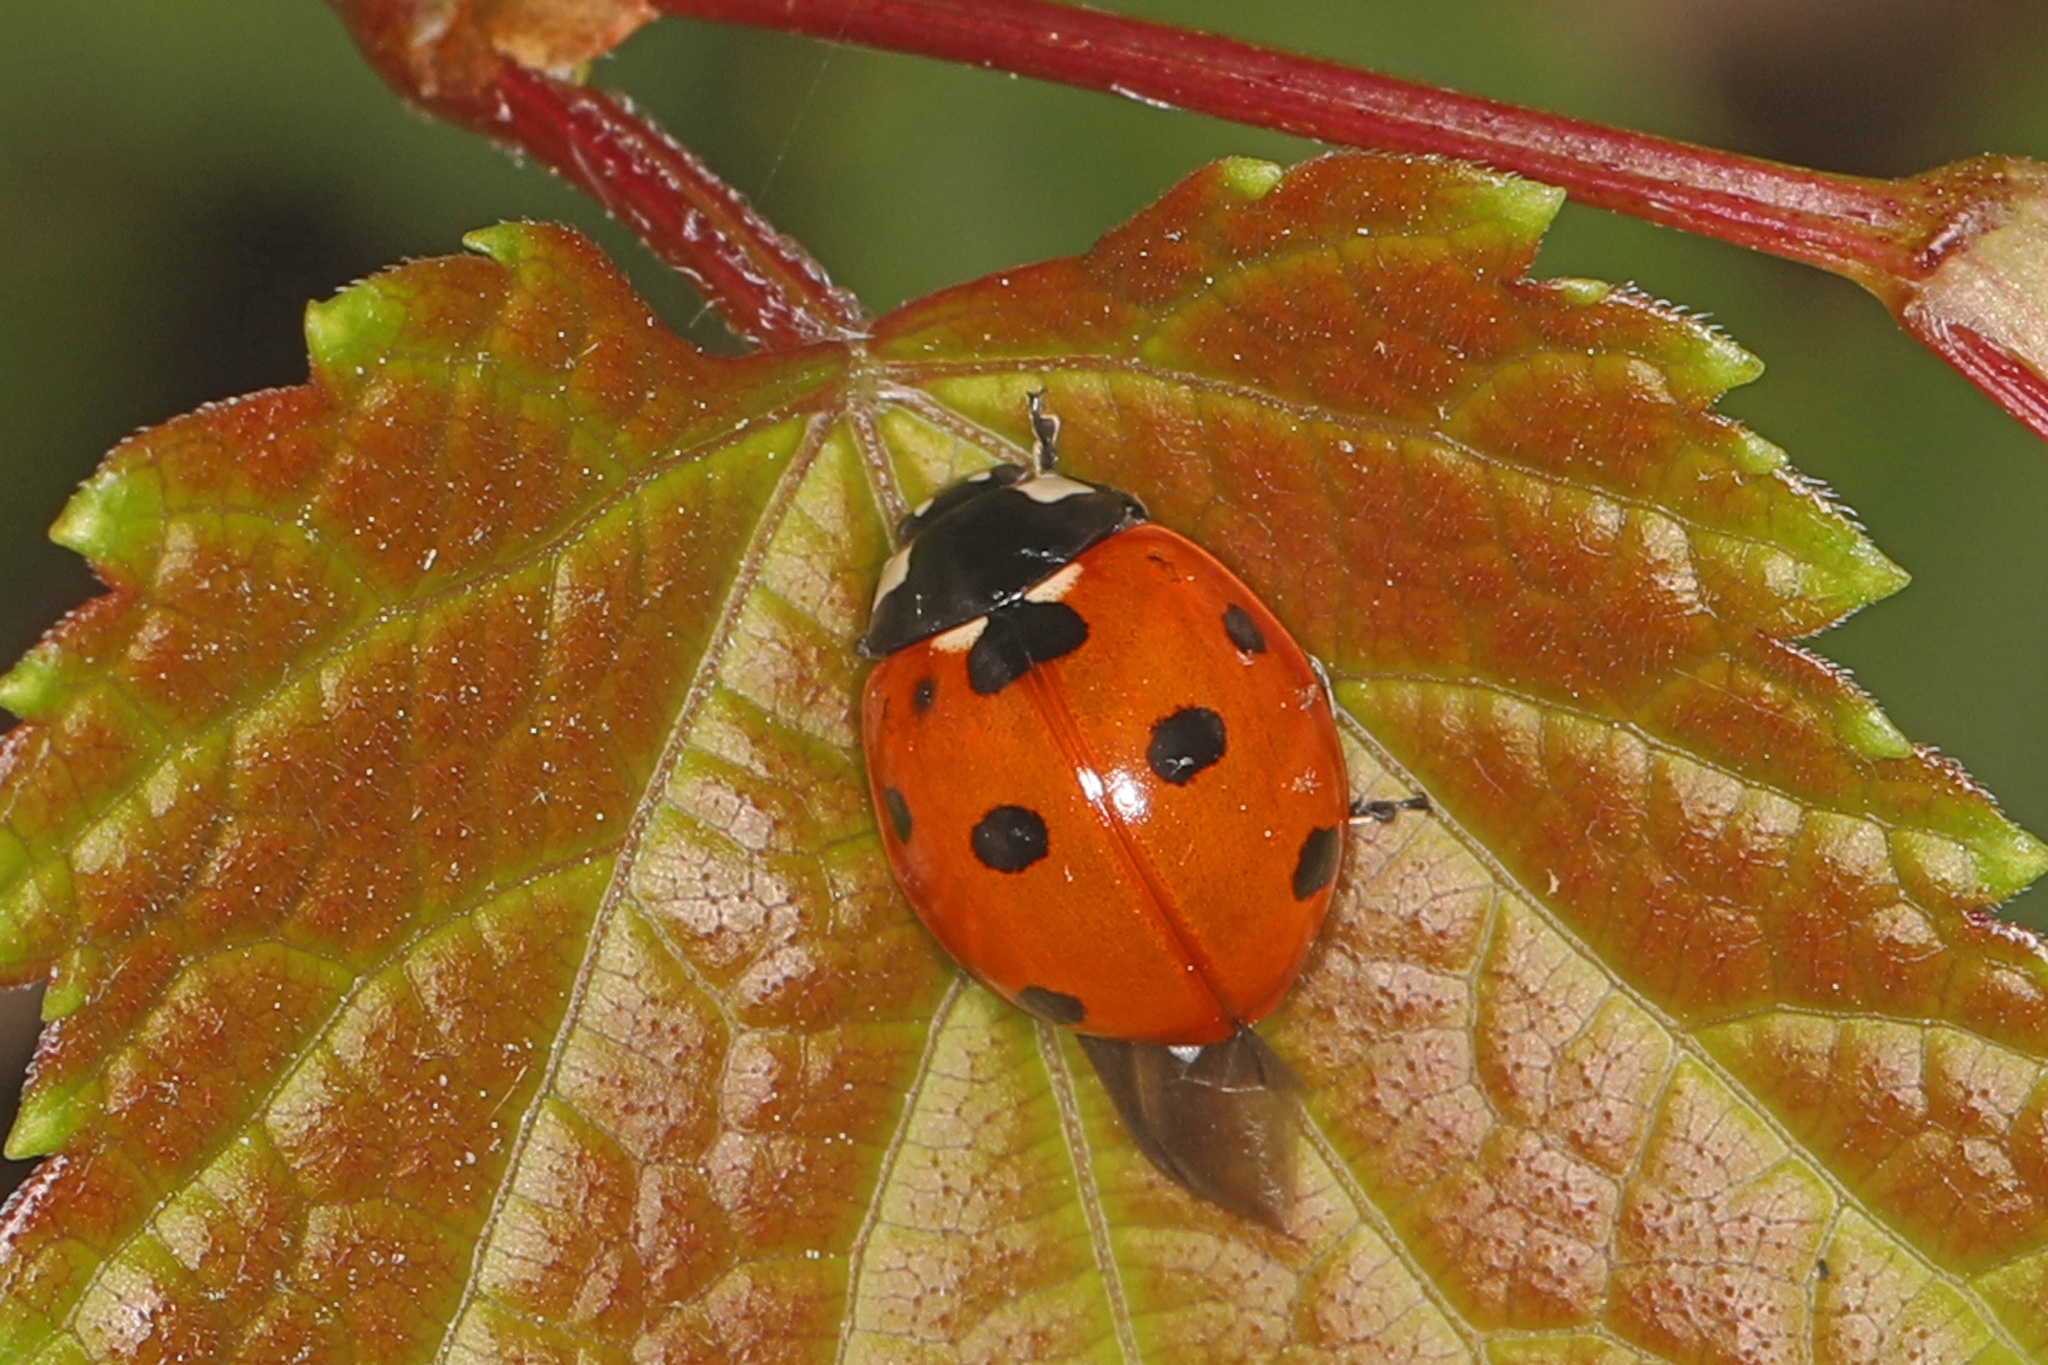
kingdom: Animalia
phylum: Arthropoda
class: Insecta
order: Coleoptera
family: Coccinellidae
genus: Coccinella
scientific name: Coccinella septempunctata
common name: Sevenspotted lady beetle
